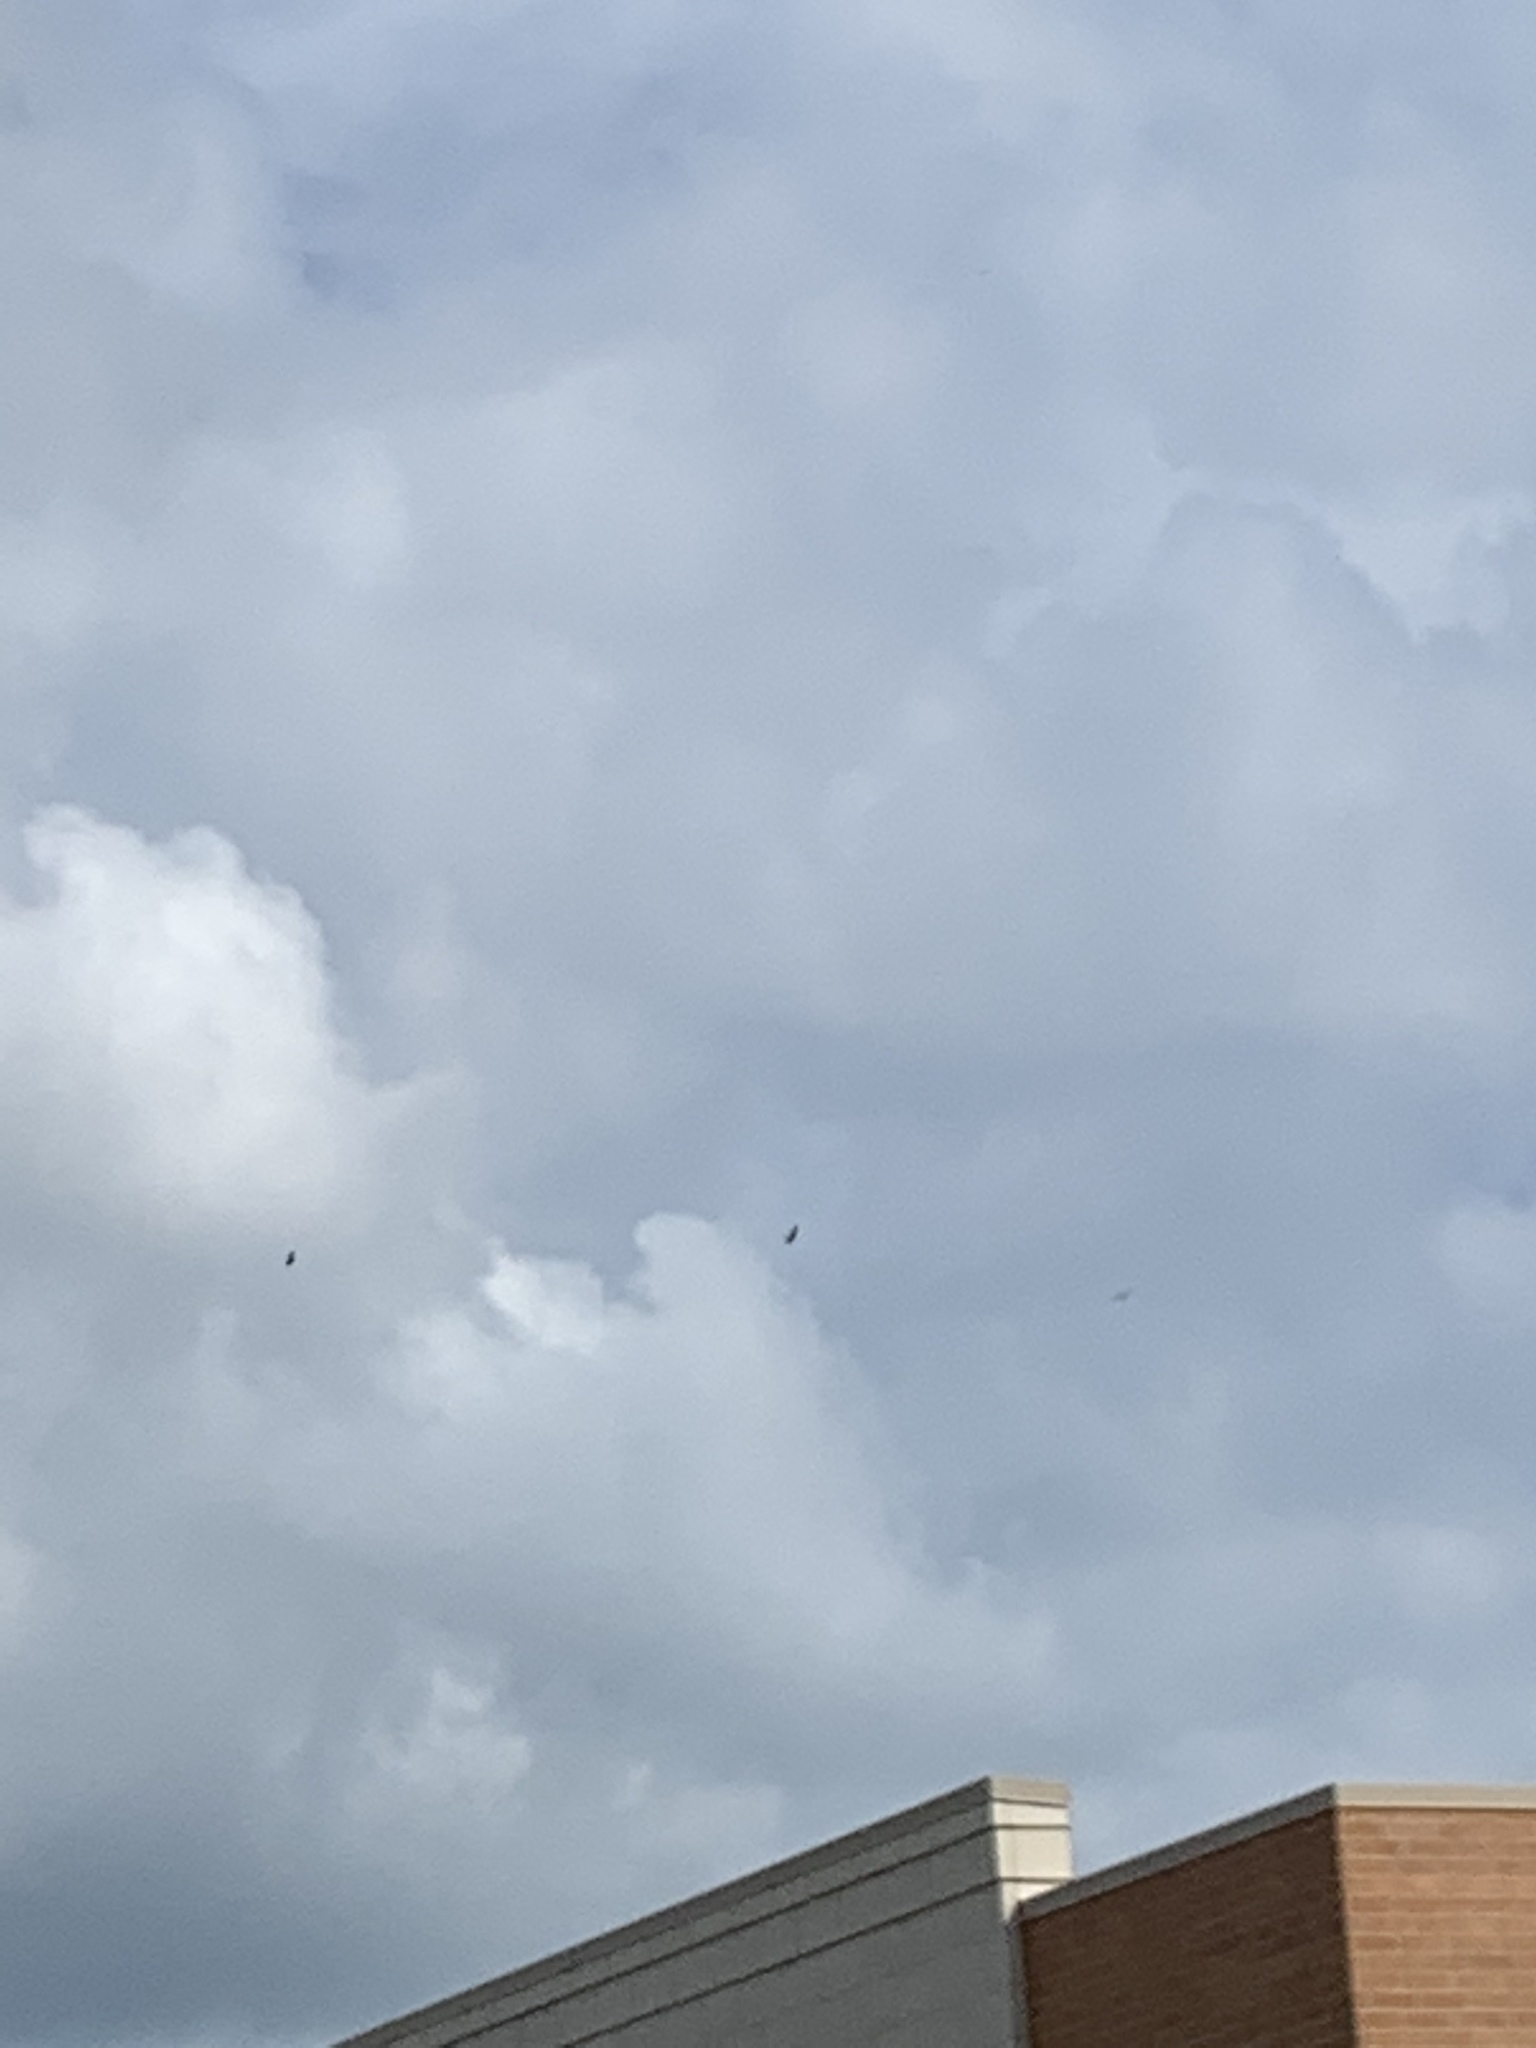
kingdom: Animalia
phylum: Chordata
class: Aves
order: Accipitriformes
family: Cathartidae
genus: Cathartes
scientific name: Cathartes aura
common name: Turkey vulture
